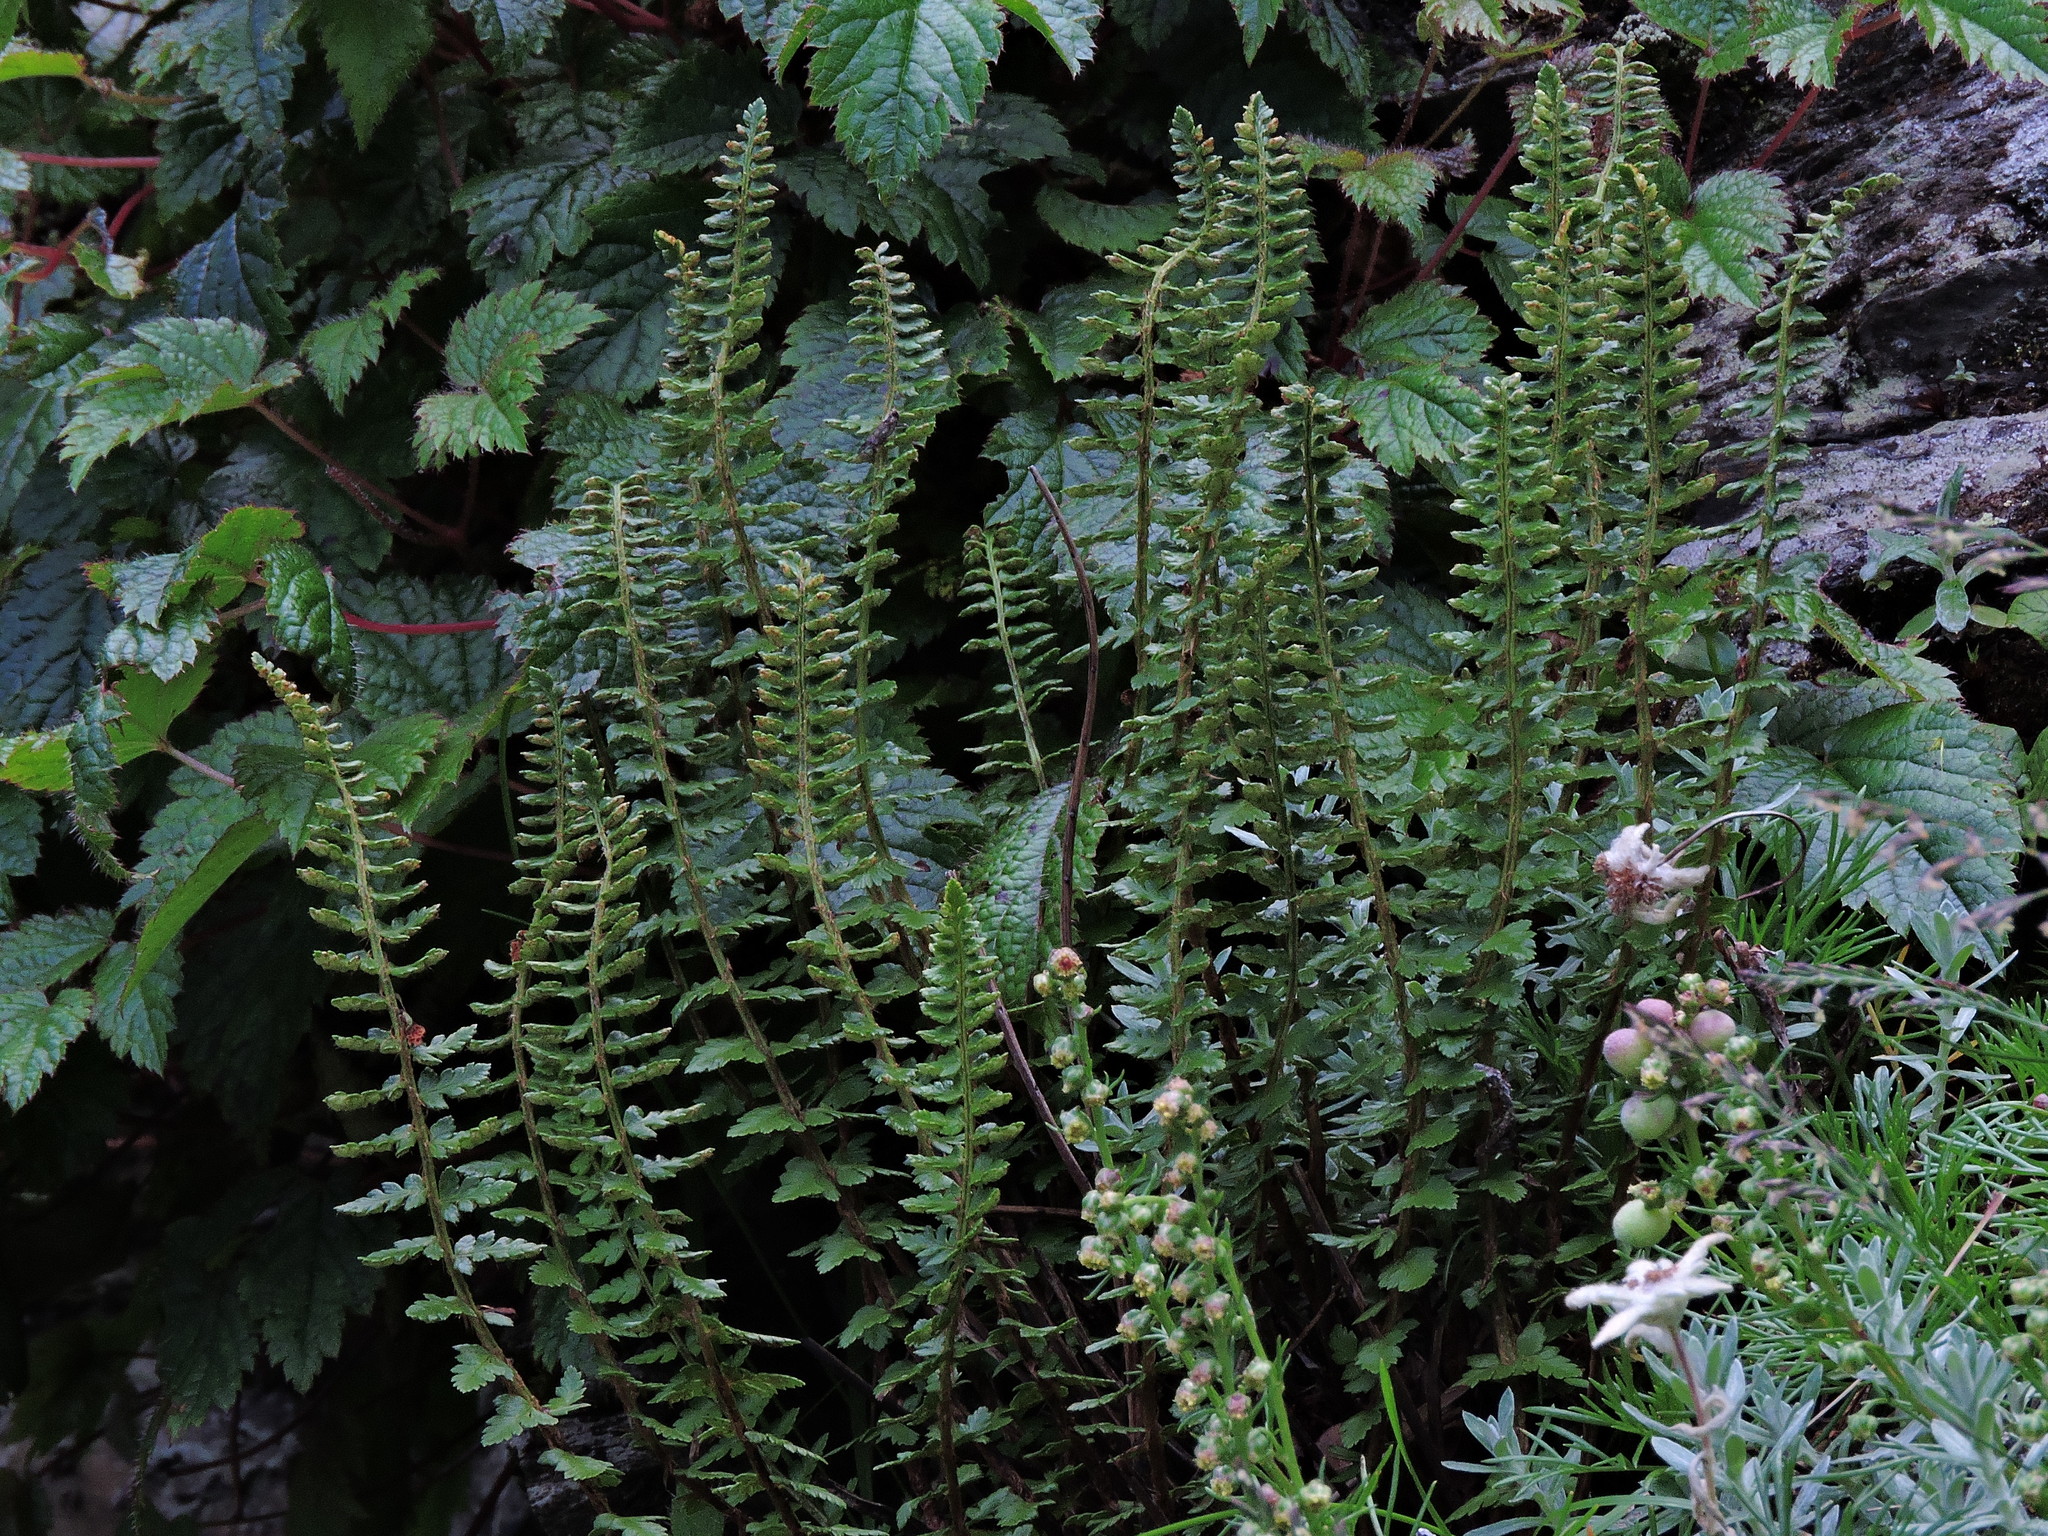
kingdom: Plantae
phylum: Tracheophyta
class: Polypodiopsida
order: Polypodiales
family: Dryopteridaceae
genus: Polystichum
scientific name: Polystichum lachenense
